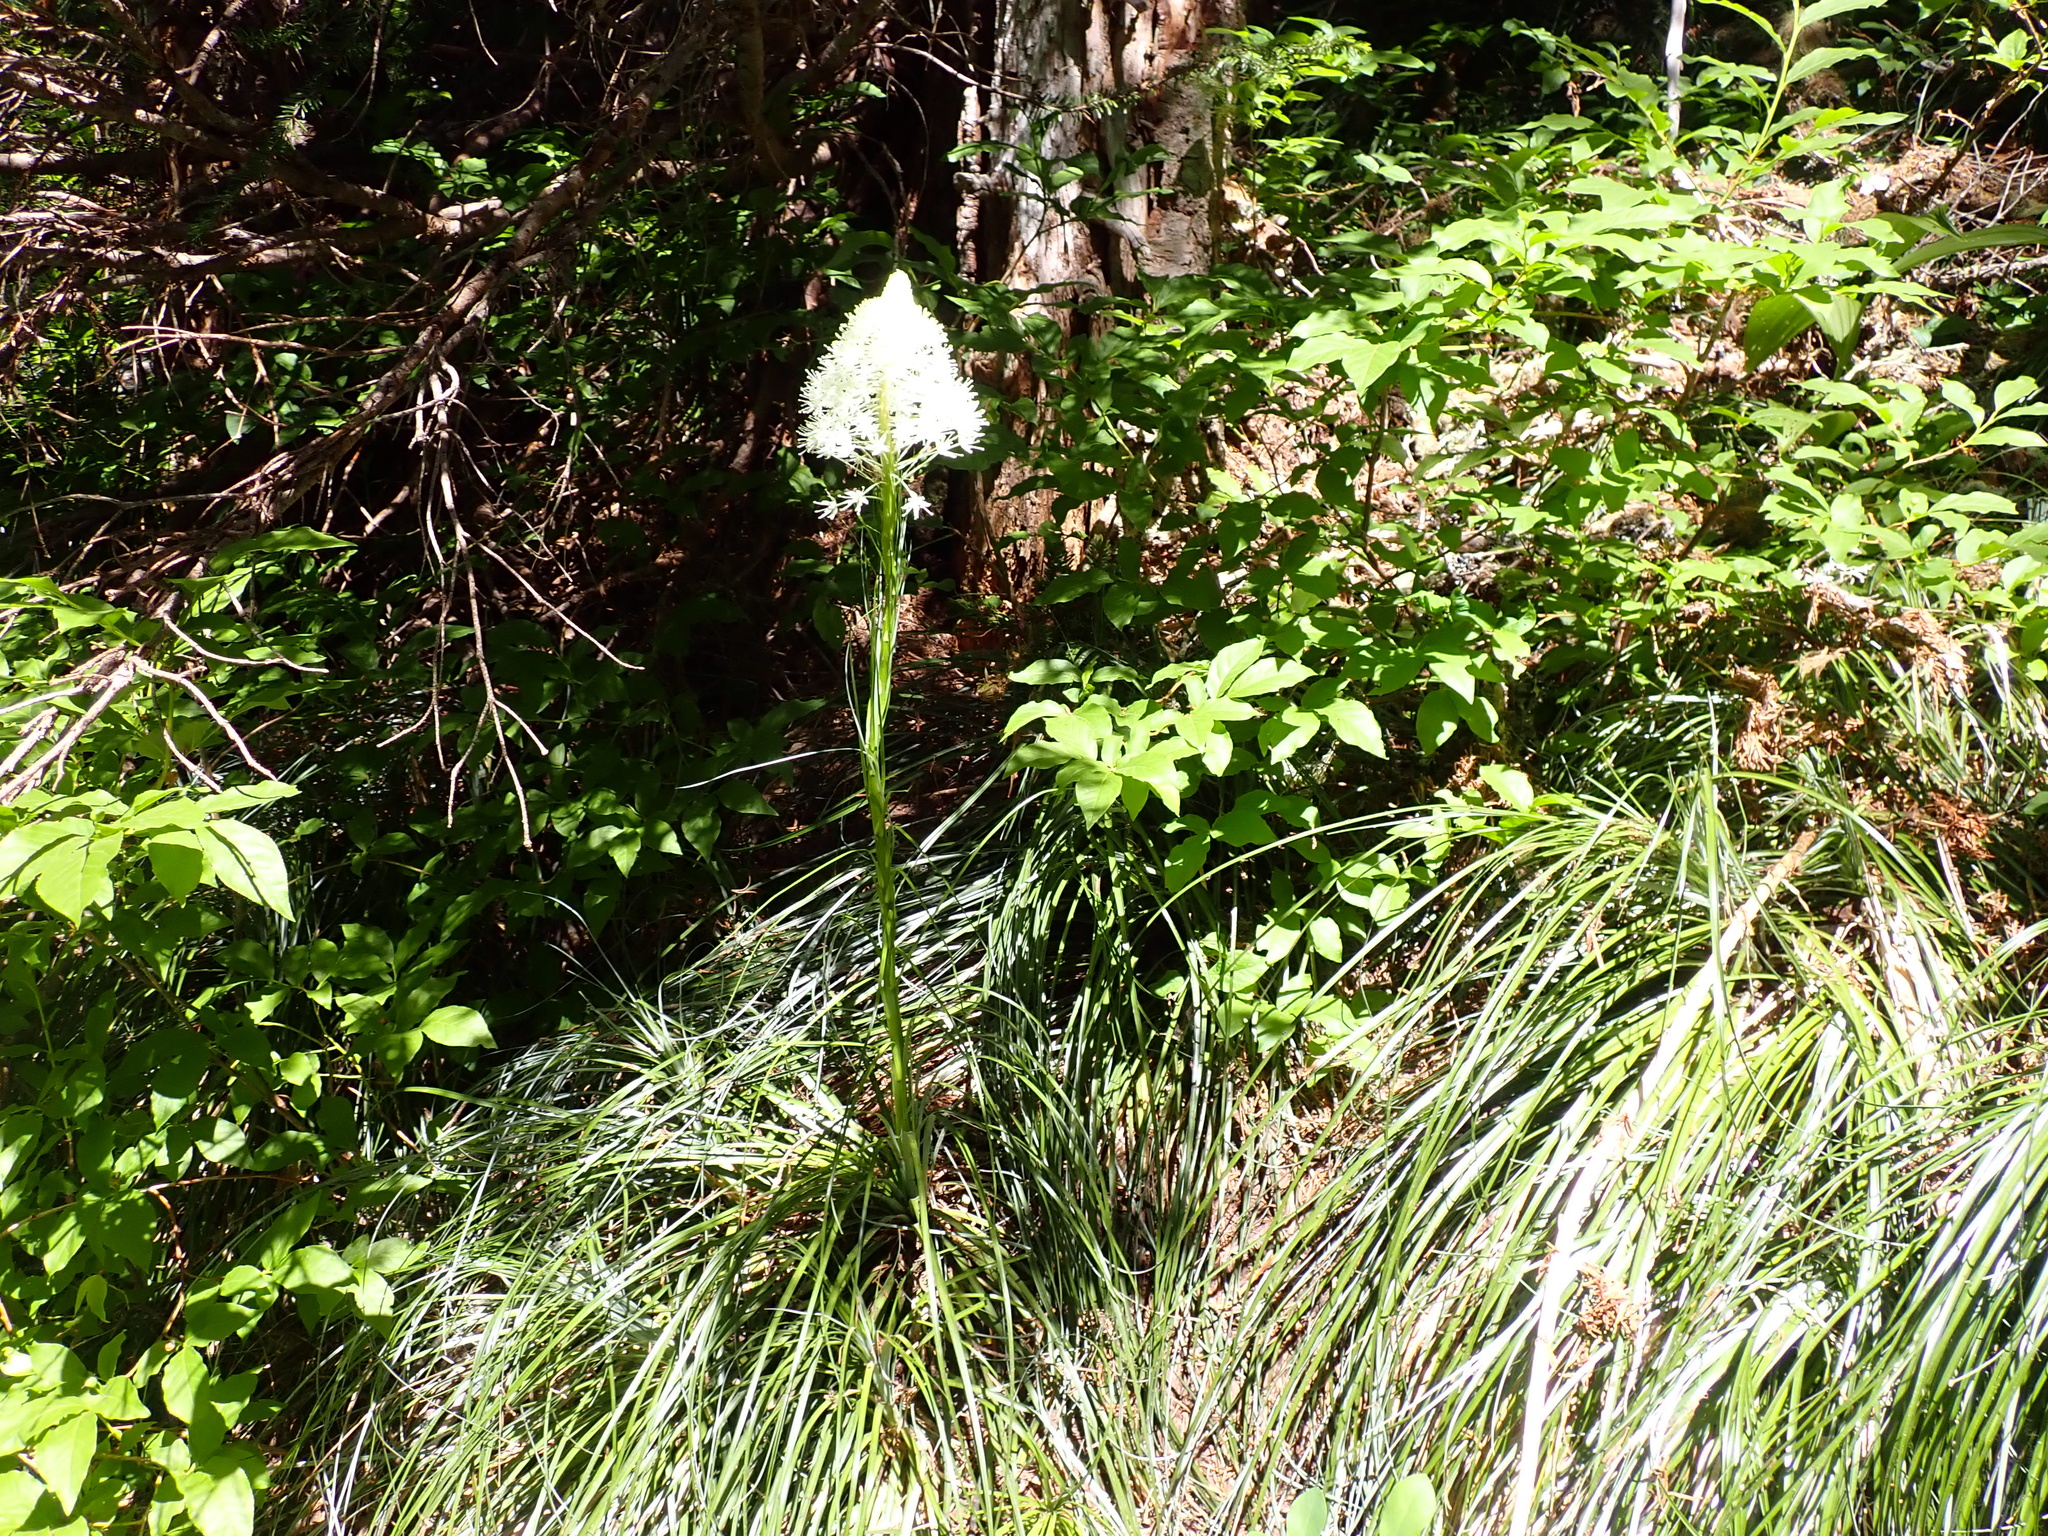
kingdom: Plantae
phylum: Tracheophyta
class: Liliopsida
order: Liliales
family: Melanthiaceae
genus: Xerophyllum
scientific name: Xerophyllum tenax
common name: Bear-grass
